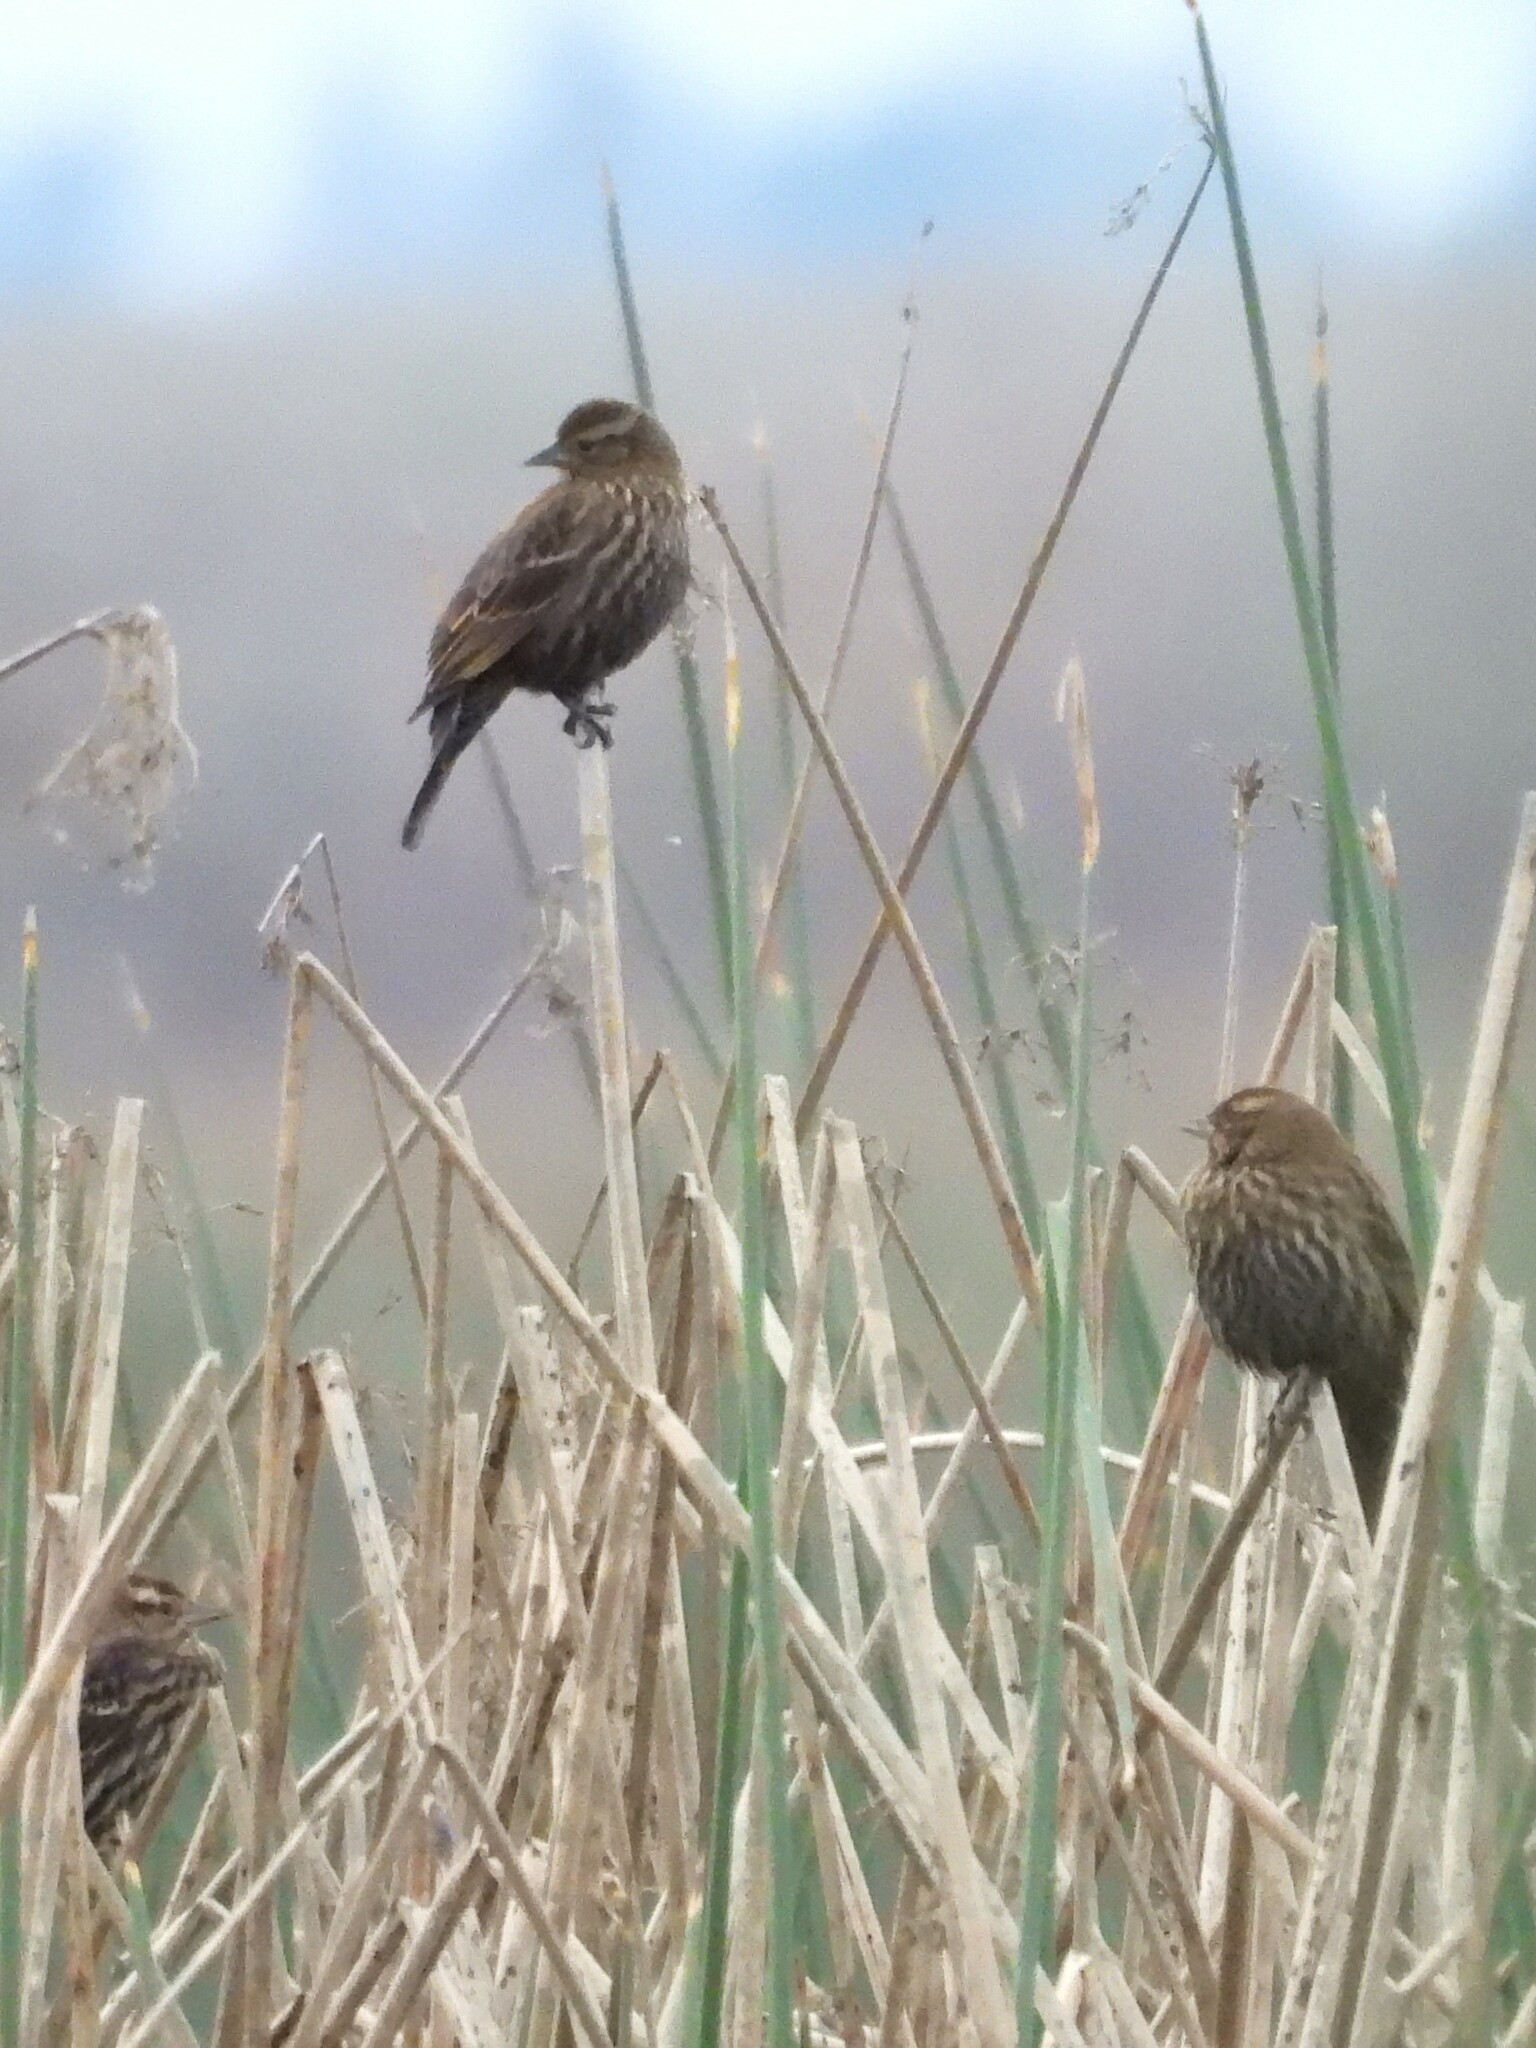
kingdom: Animalia
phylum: Chordata
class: Aves
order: Passeriformes
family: Icteridae
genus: Agelaius
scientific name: Agelaius phoeniceus
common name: Red-winged blackbird
